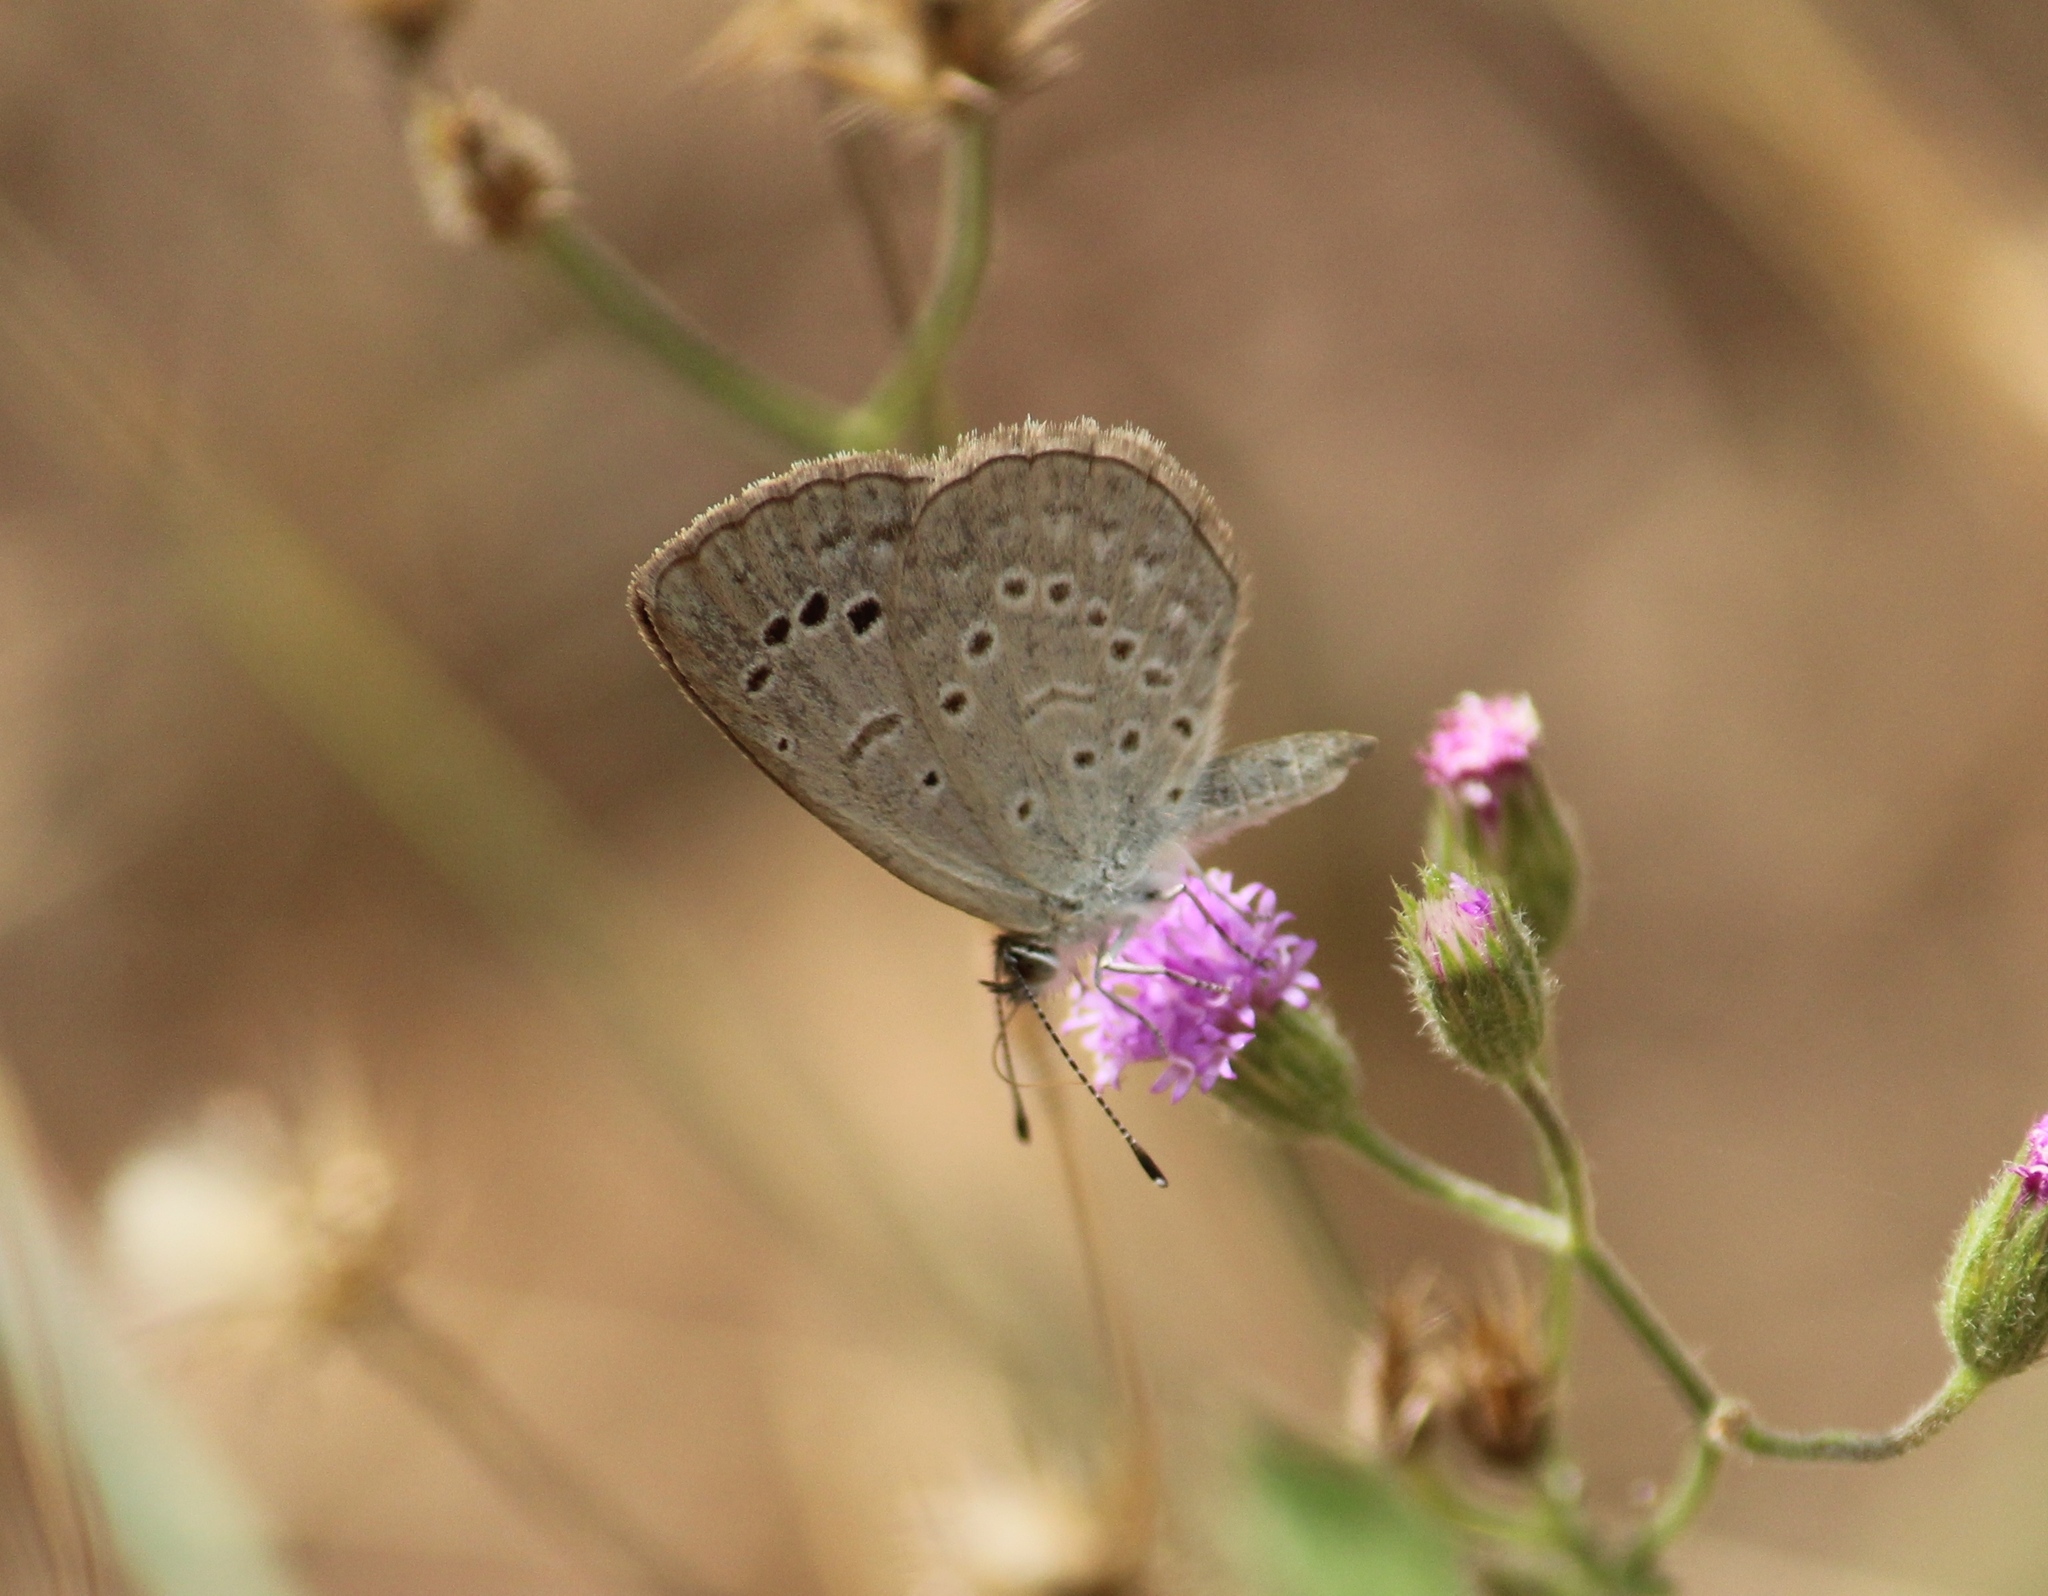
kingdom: Animalia
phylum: Arthropoda
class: Insecta
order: Lepidoptera
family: Lycaenidae
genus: Pseudozizeeria
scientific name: Pseudozizeeria maha
